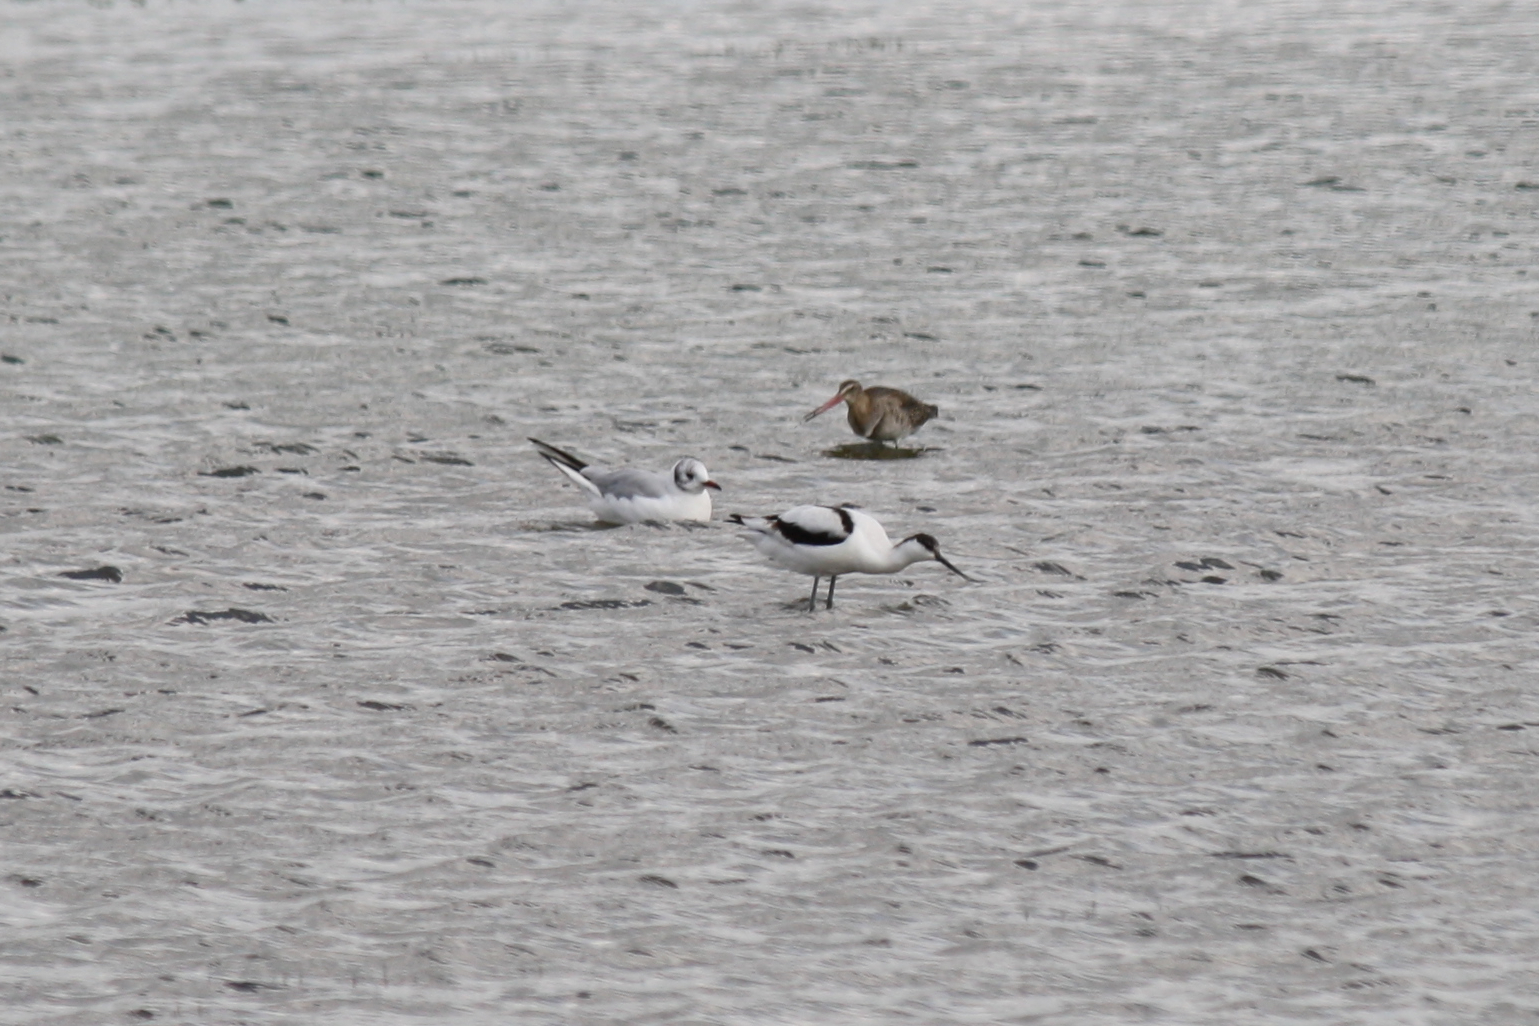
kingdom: Animalia
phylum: Chordata
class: Aves
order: Charadriiformes
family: Recurvirostridae
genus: Recurvirostra
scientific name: Recurvirostra avosetta
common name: Pied avocet
